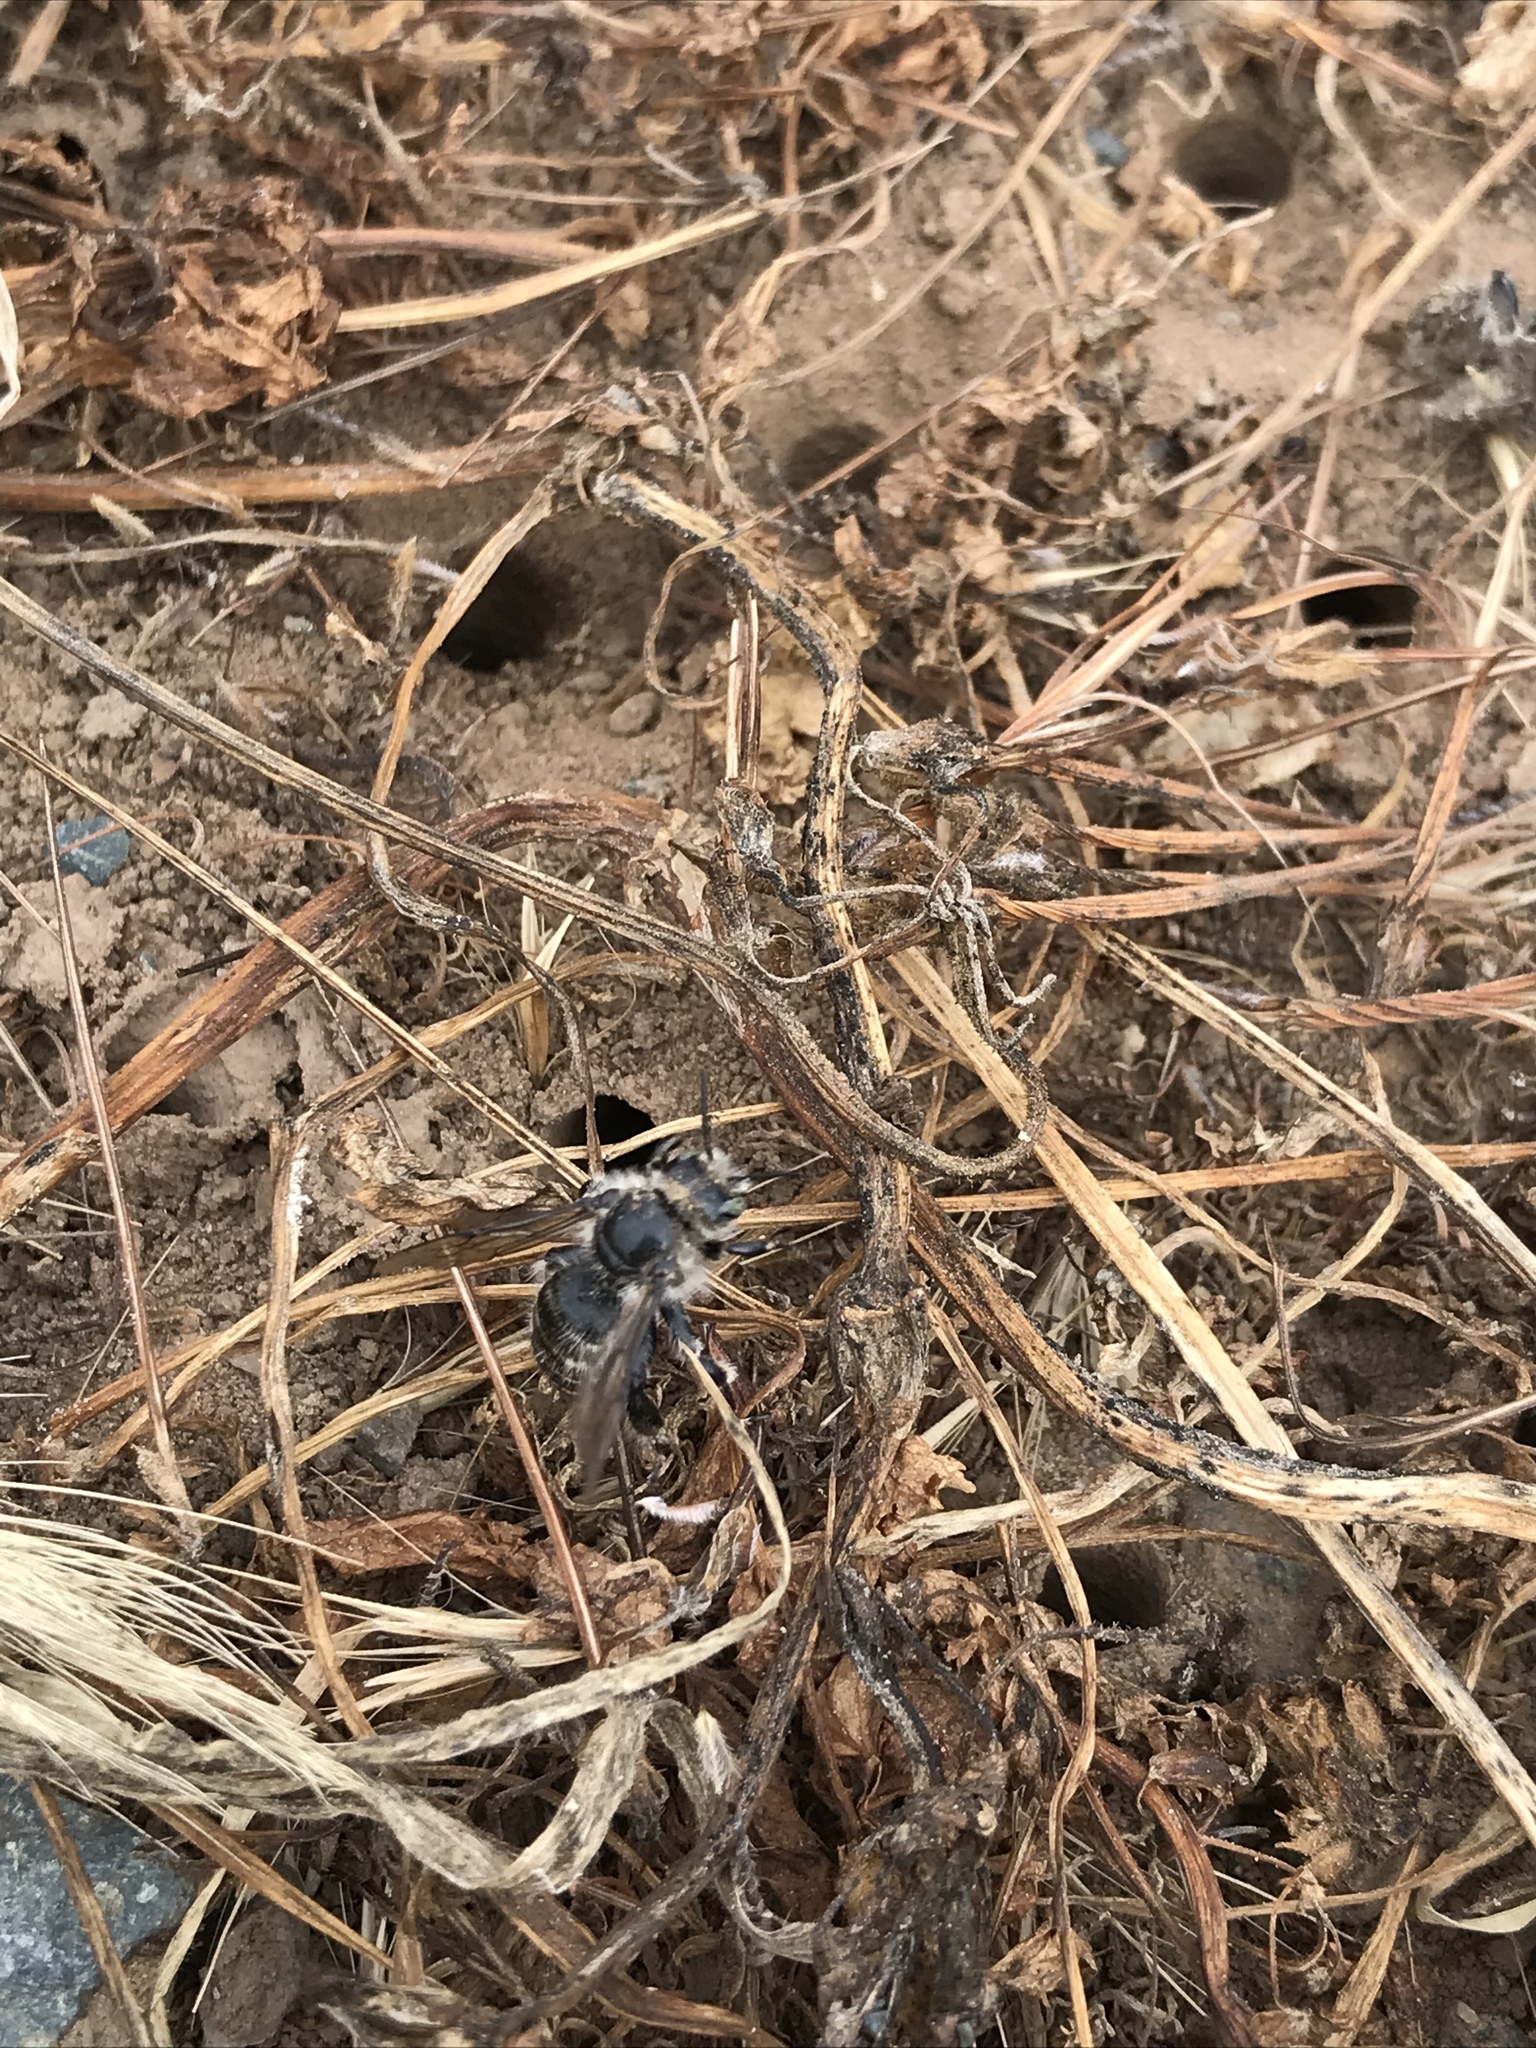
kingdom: Animalia
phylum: Arthropoda
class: Insecta
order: Hymenoptera
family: Apidae
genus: Diadasia
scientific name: Diadasia bituberculata
